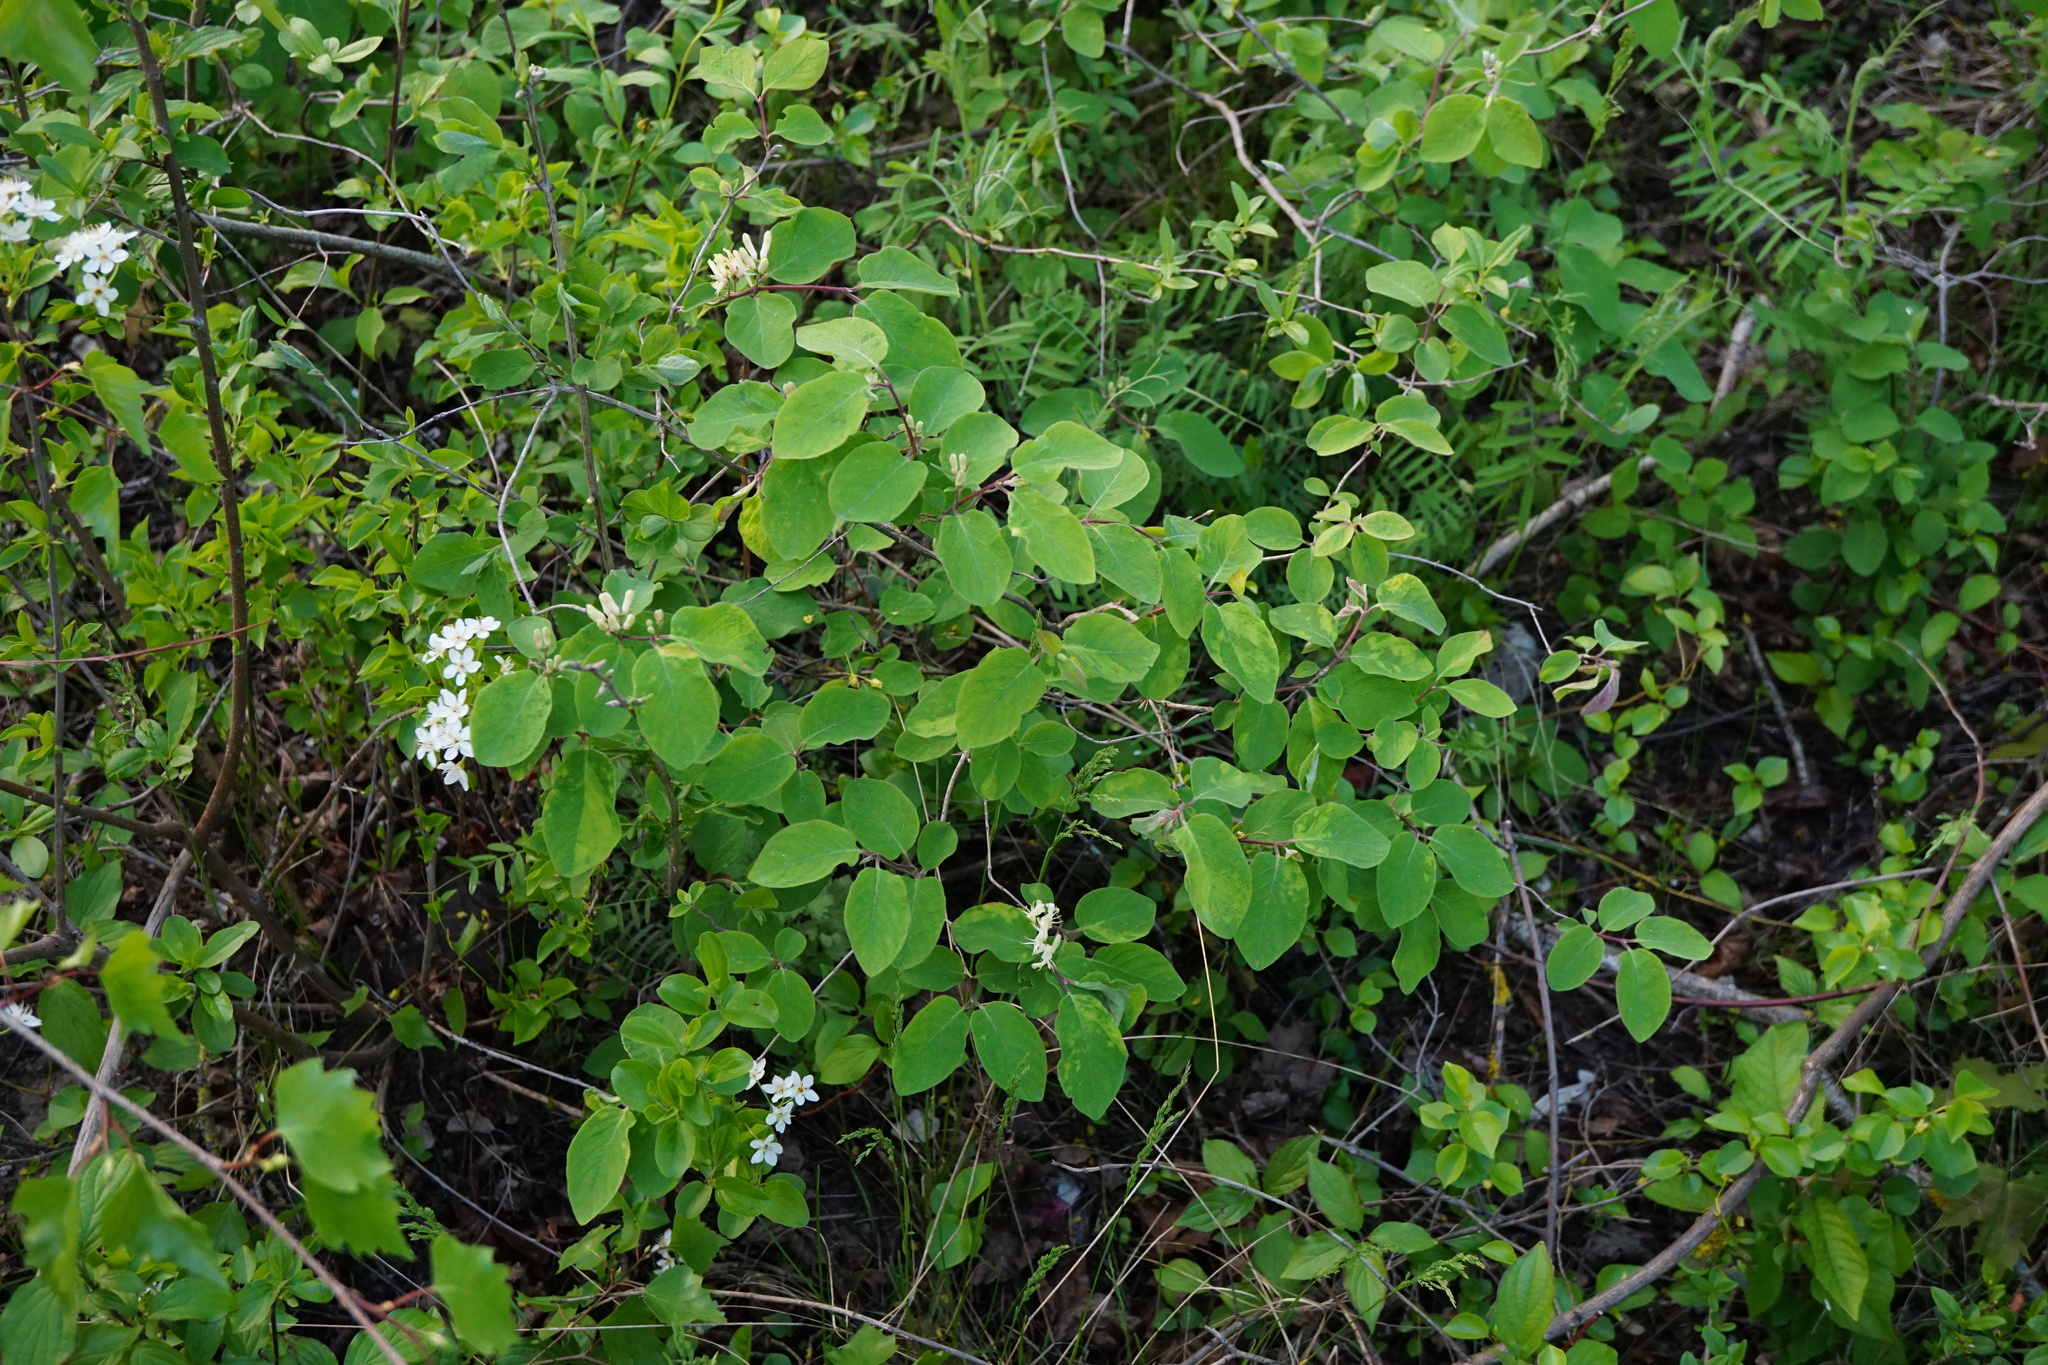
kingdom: Plantae
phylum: Tracheophyta
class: Magnoliopsida
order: Dipsacales
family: Caprifoliaceae
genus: Lonicera
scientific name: Lonicera xylosteum
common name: Fly honeysuckle
